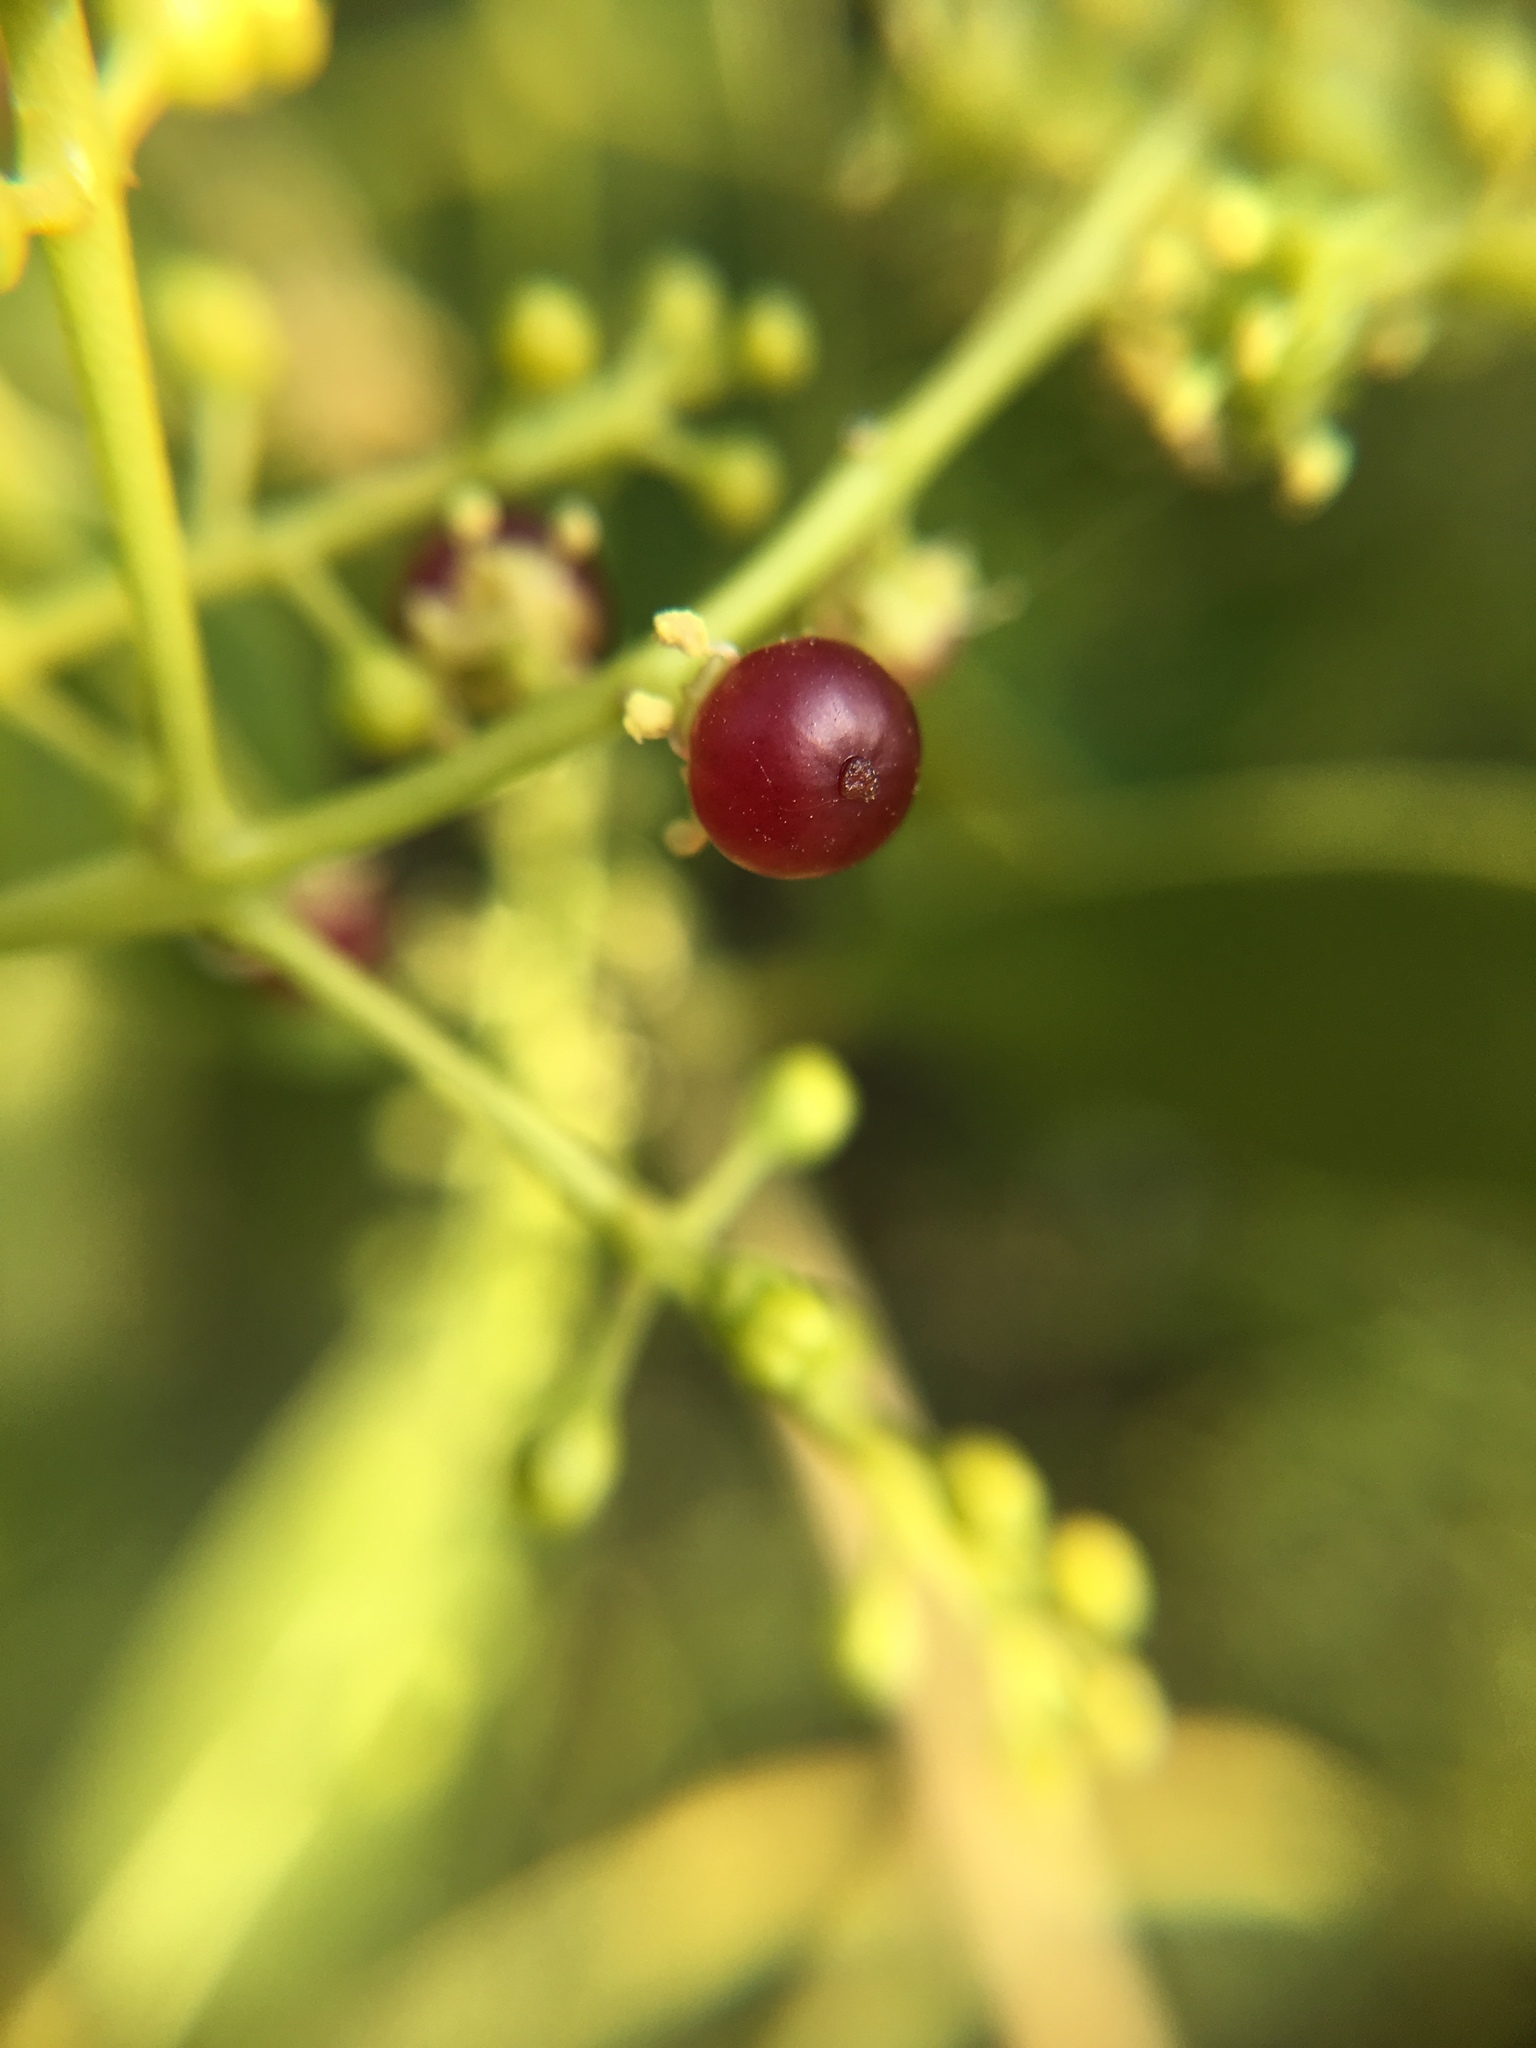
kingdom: Plantae
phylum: Tracheophyta
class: Magnoliopsida
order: Brassicales
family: Salvadoraceae
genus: Salvadora
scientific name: Salvadora persica
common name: Toothbrushtree
